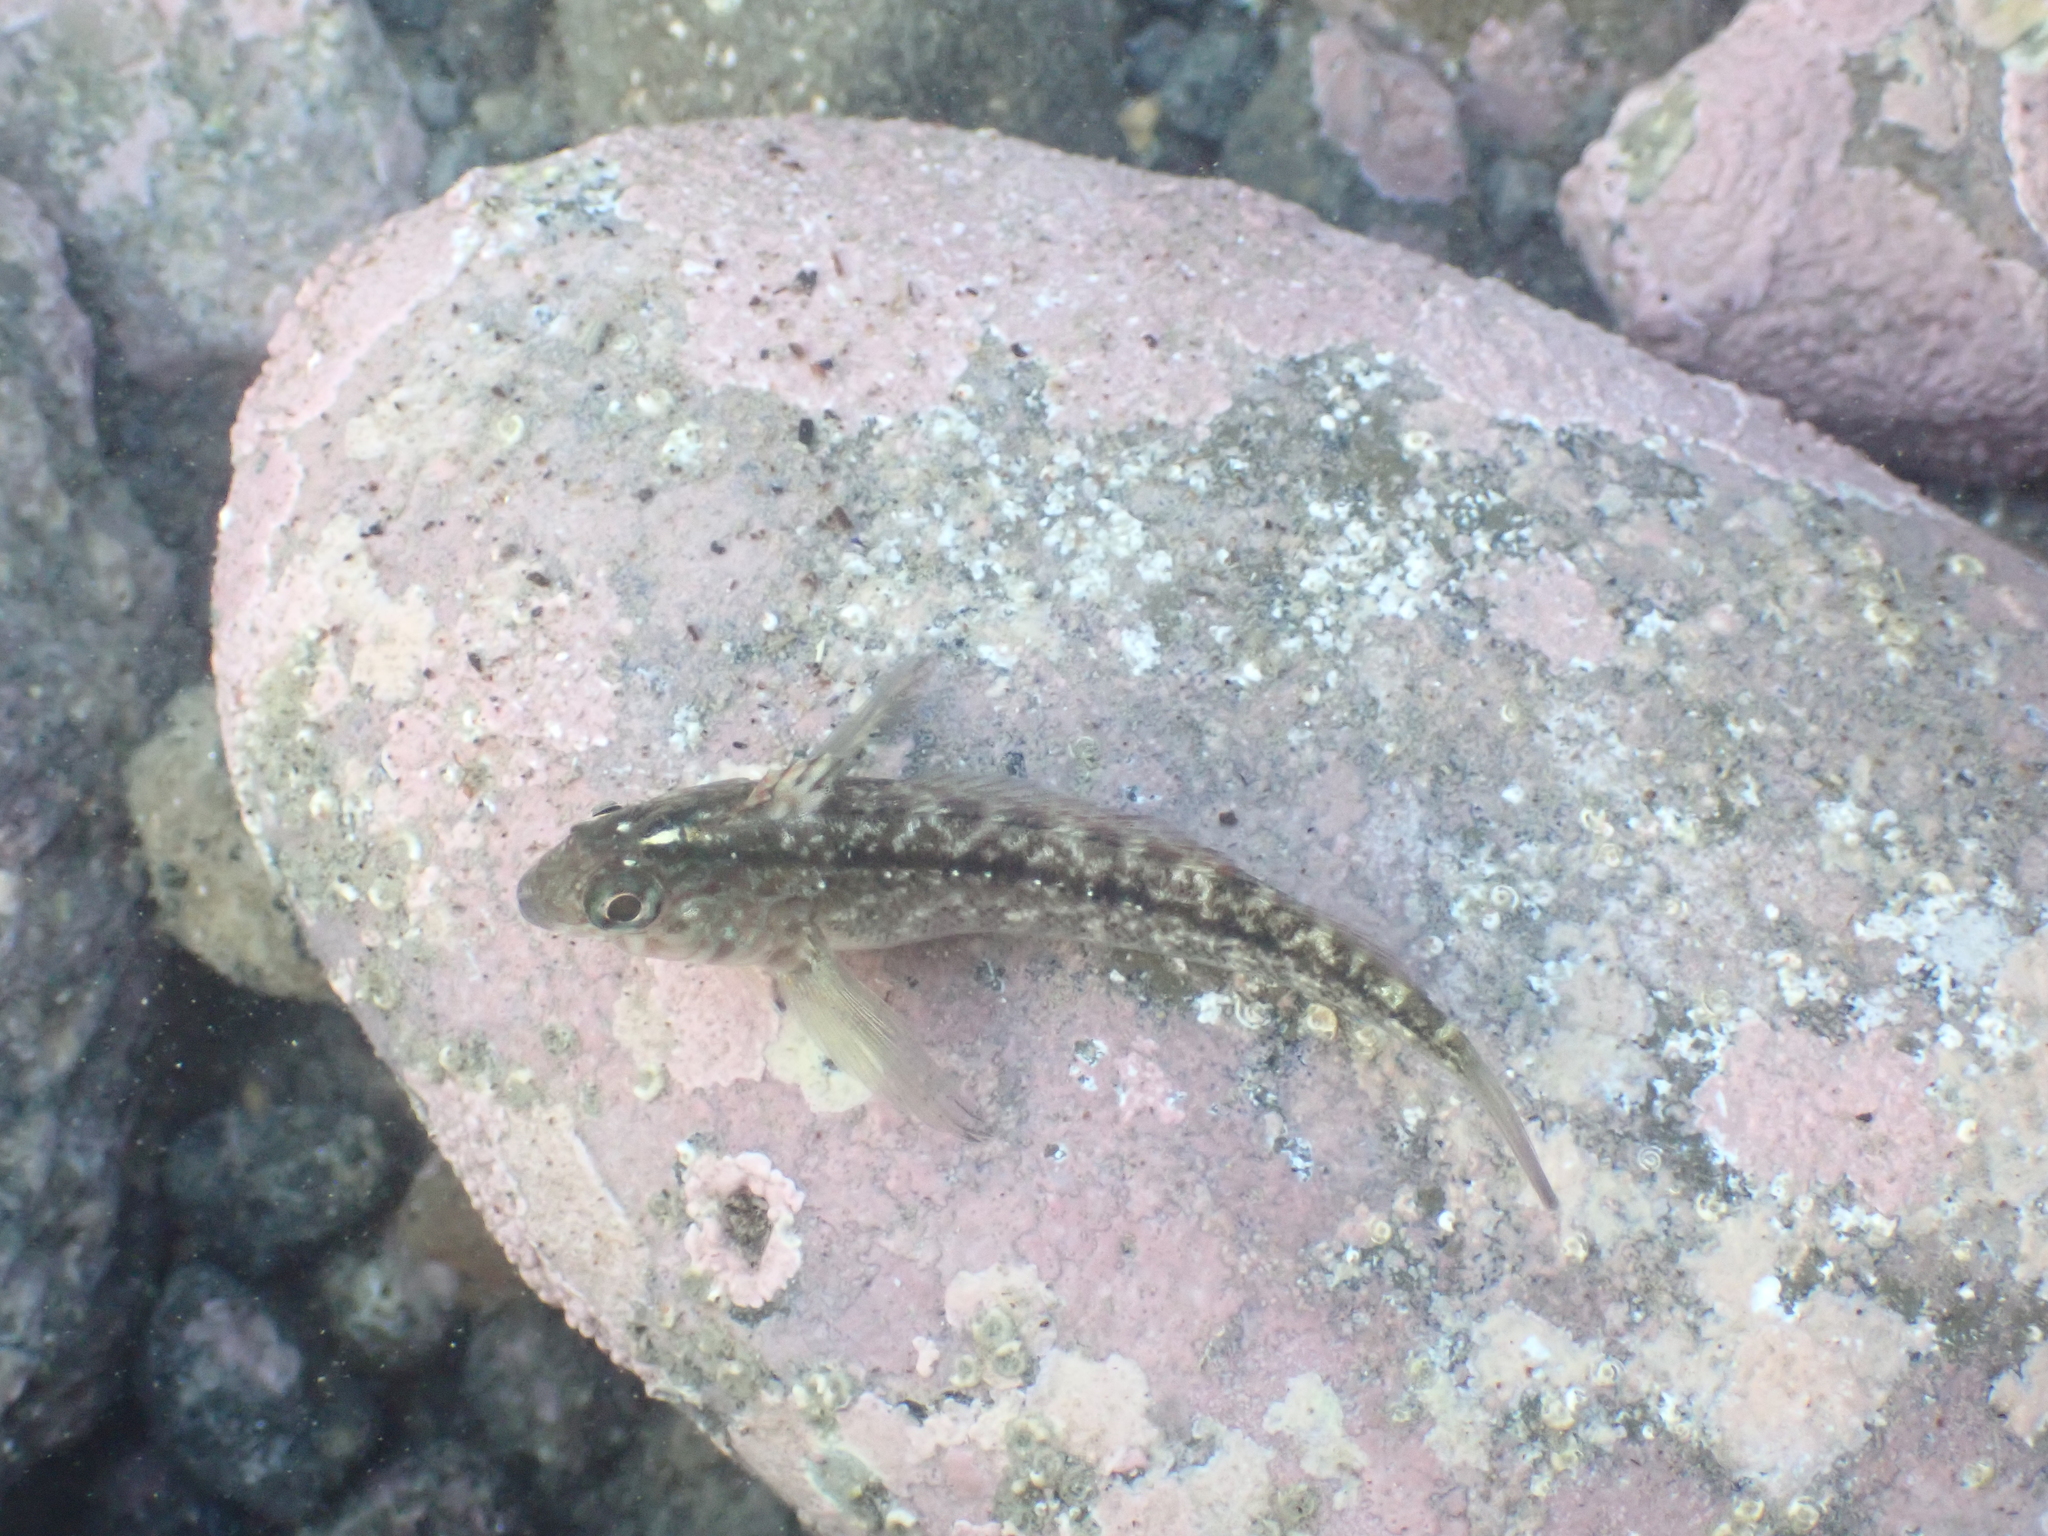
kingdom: Animalia
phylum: Chordata
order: Perciformes
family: Tripterygiidae
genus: Forsterygion
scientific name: Forsterygion lapillum
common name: Common triplefin
